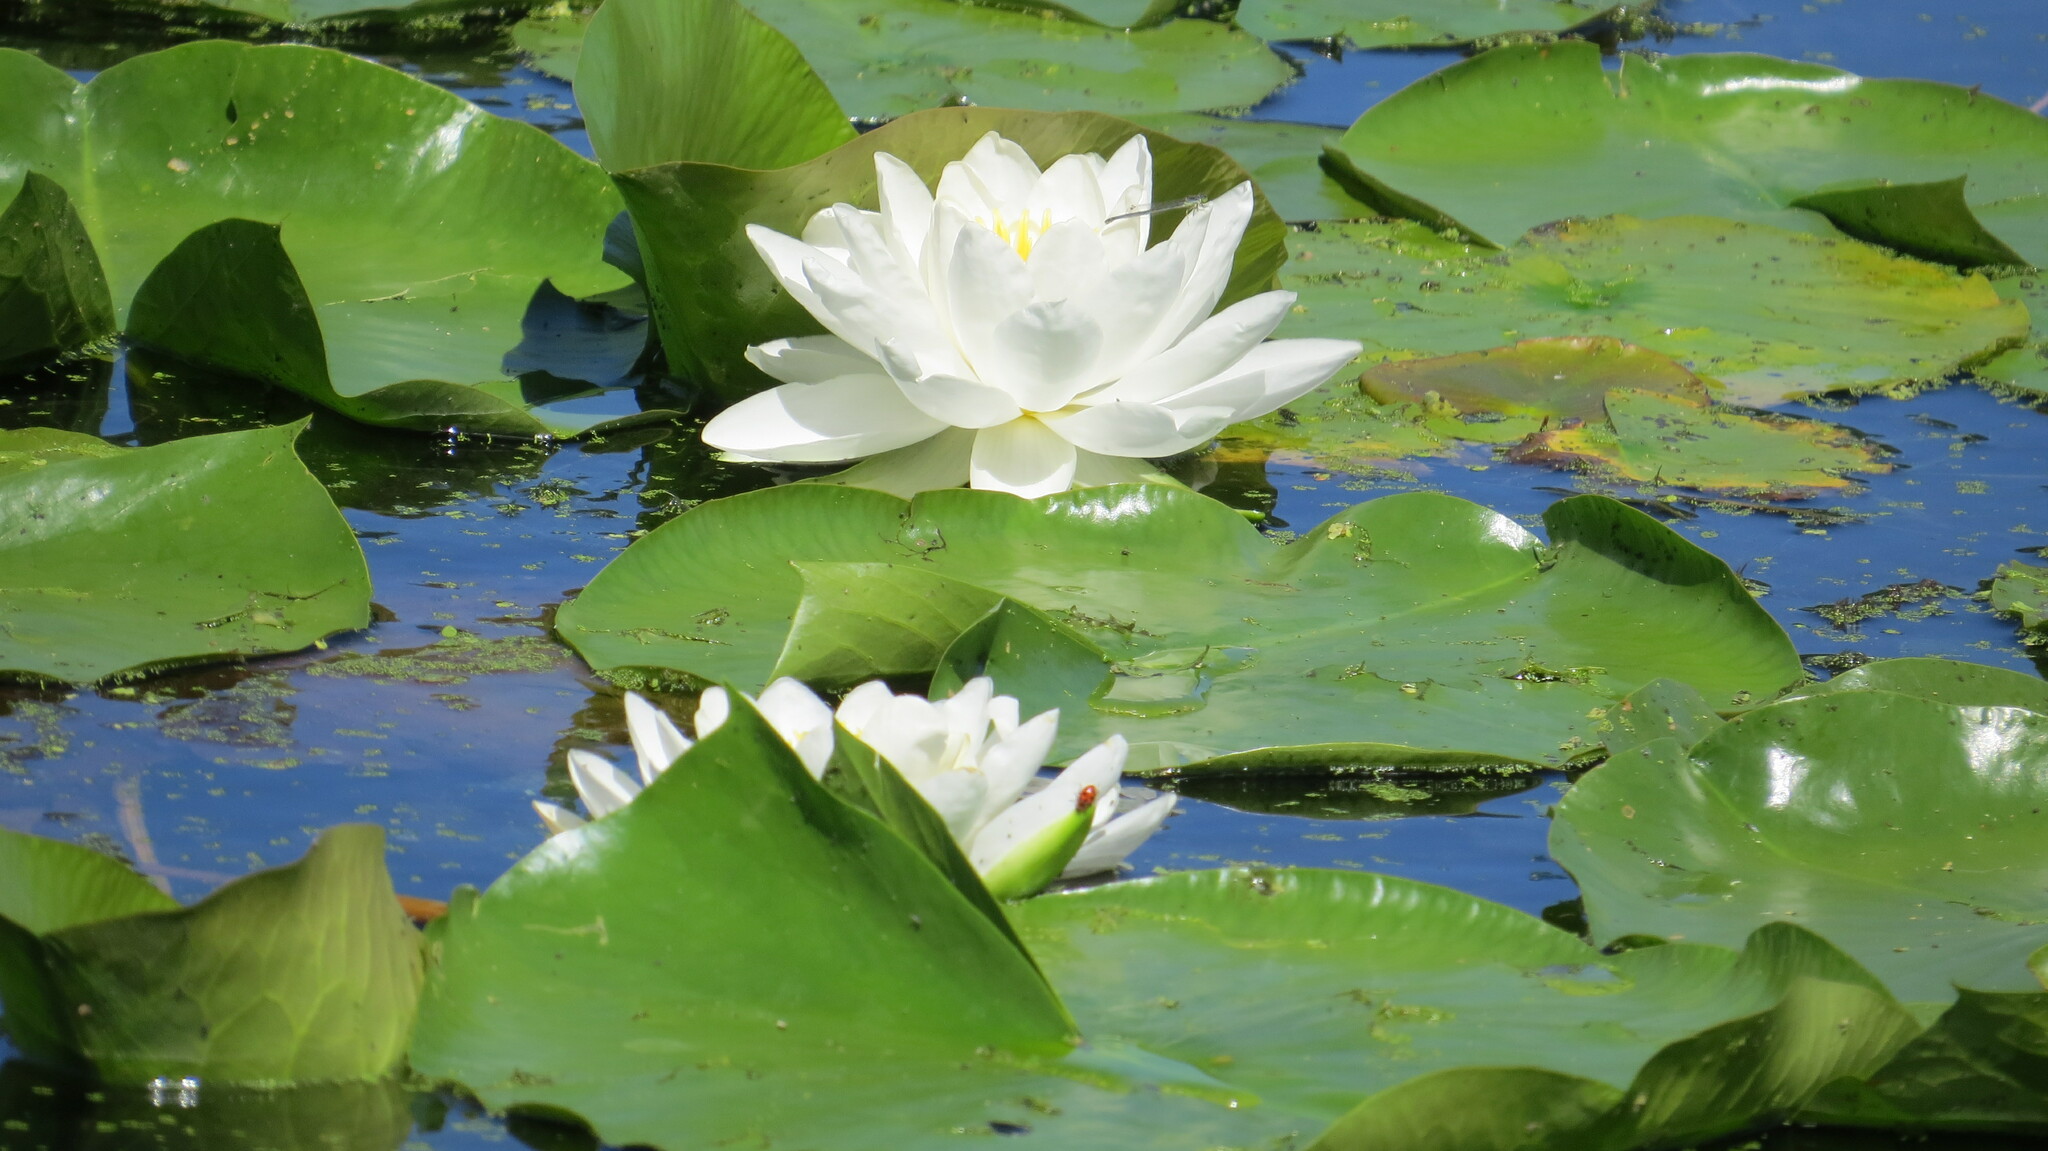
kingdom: Plantae
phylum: Tracheophyta
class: Magnoliopsida
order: Nymphaeales
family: Nymphaeaceae
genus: Nymphaea
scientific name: Nymphaea odorata
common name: Fragrant water-lily
